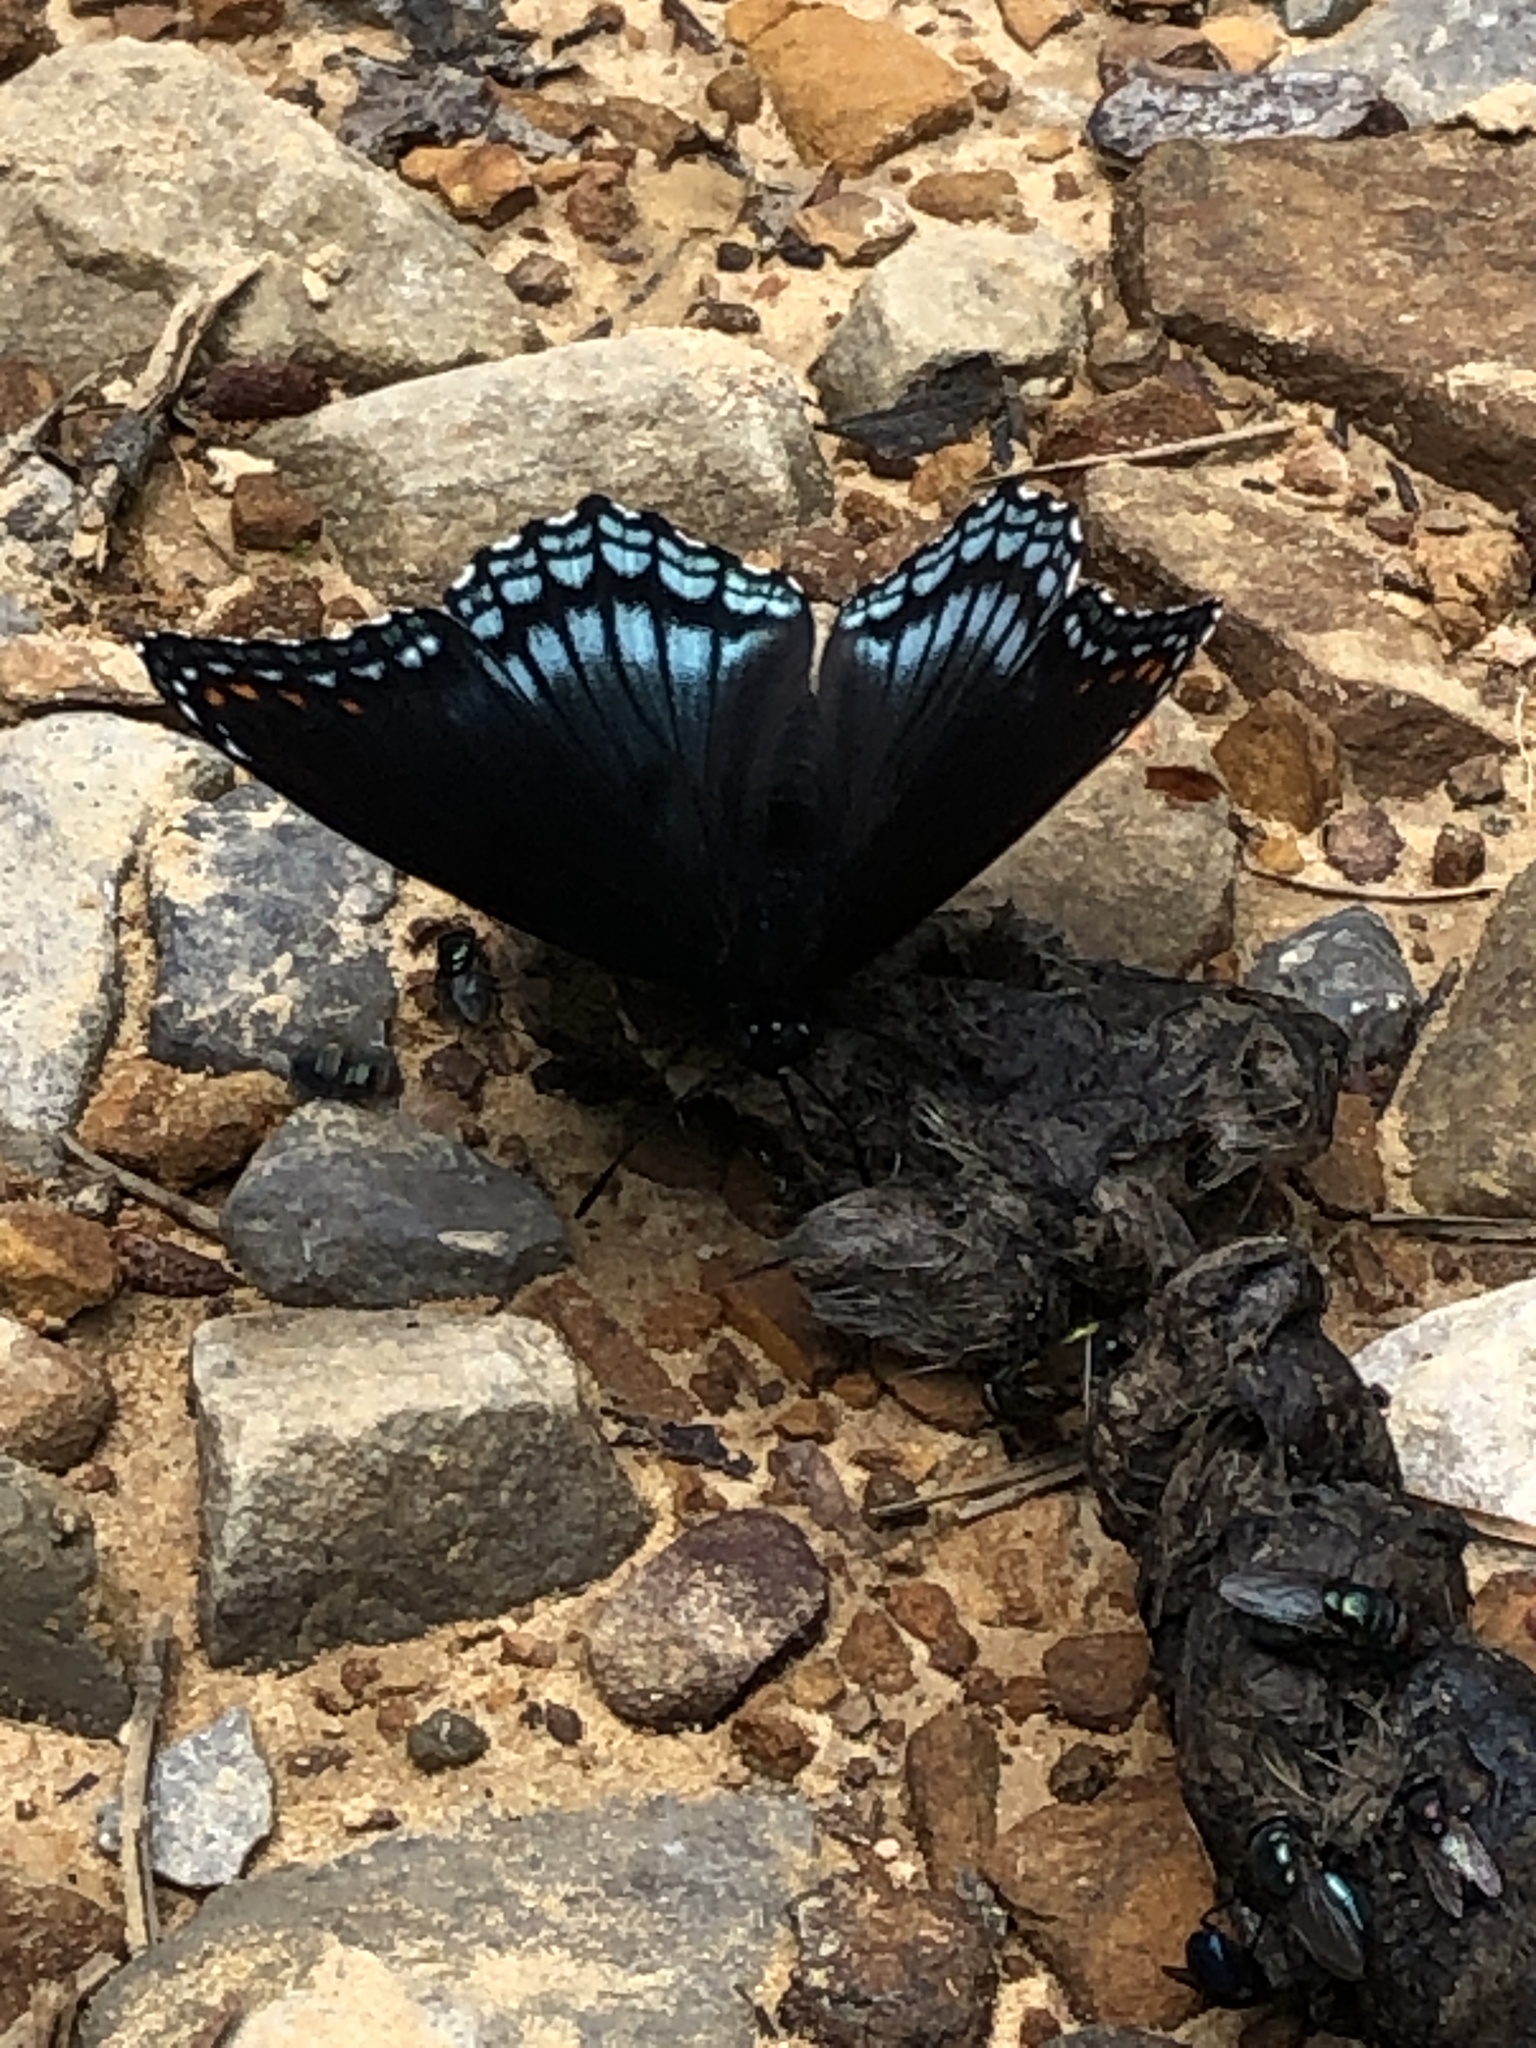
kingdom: Animalia
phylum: Arthropoda
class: Insecta
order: Lepidoptera
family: Nymphalidae
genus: Limenitis
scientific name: Limenitis astyanax
